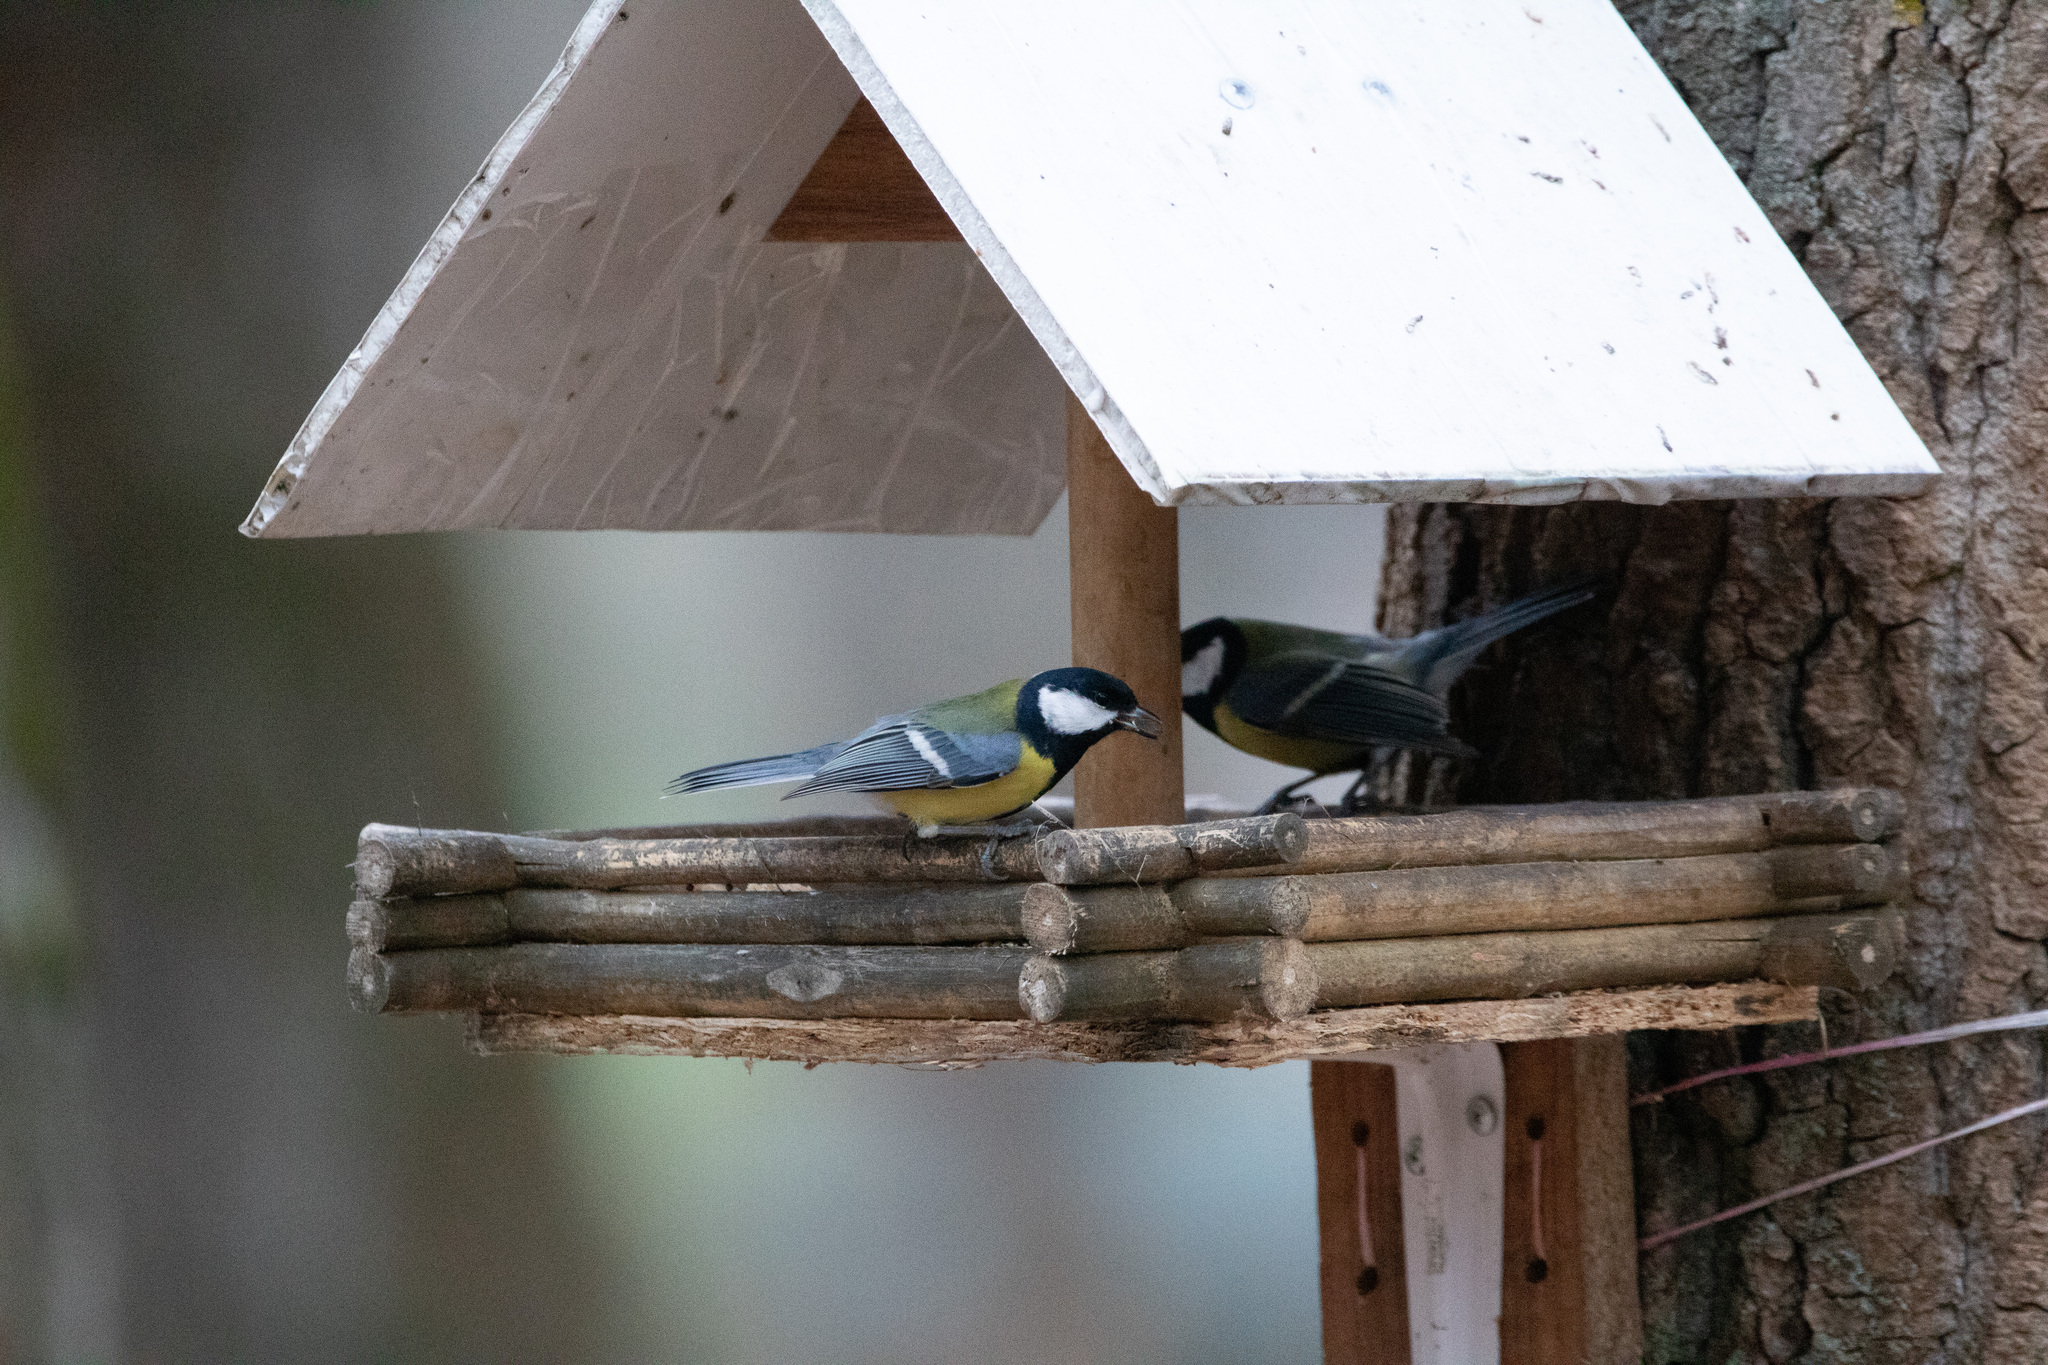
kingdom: Animalia
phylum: Chordata
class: Aves
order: Passeriformes
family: Paridae
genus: Parus
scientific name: Parus major
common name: Great tit
